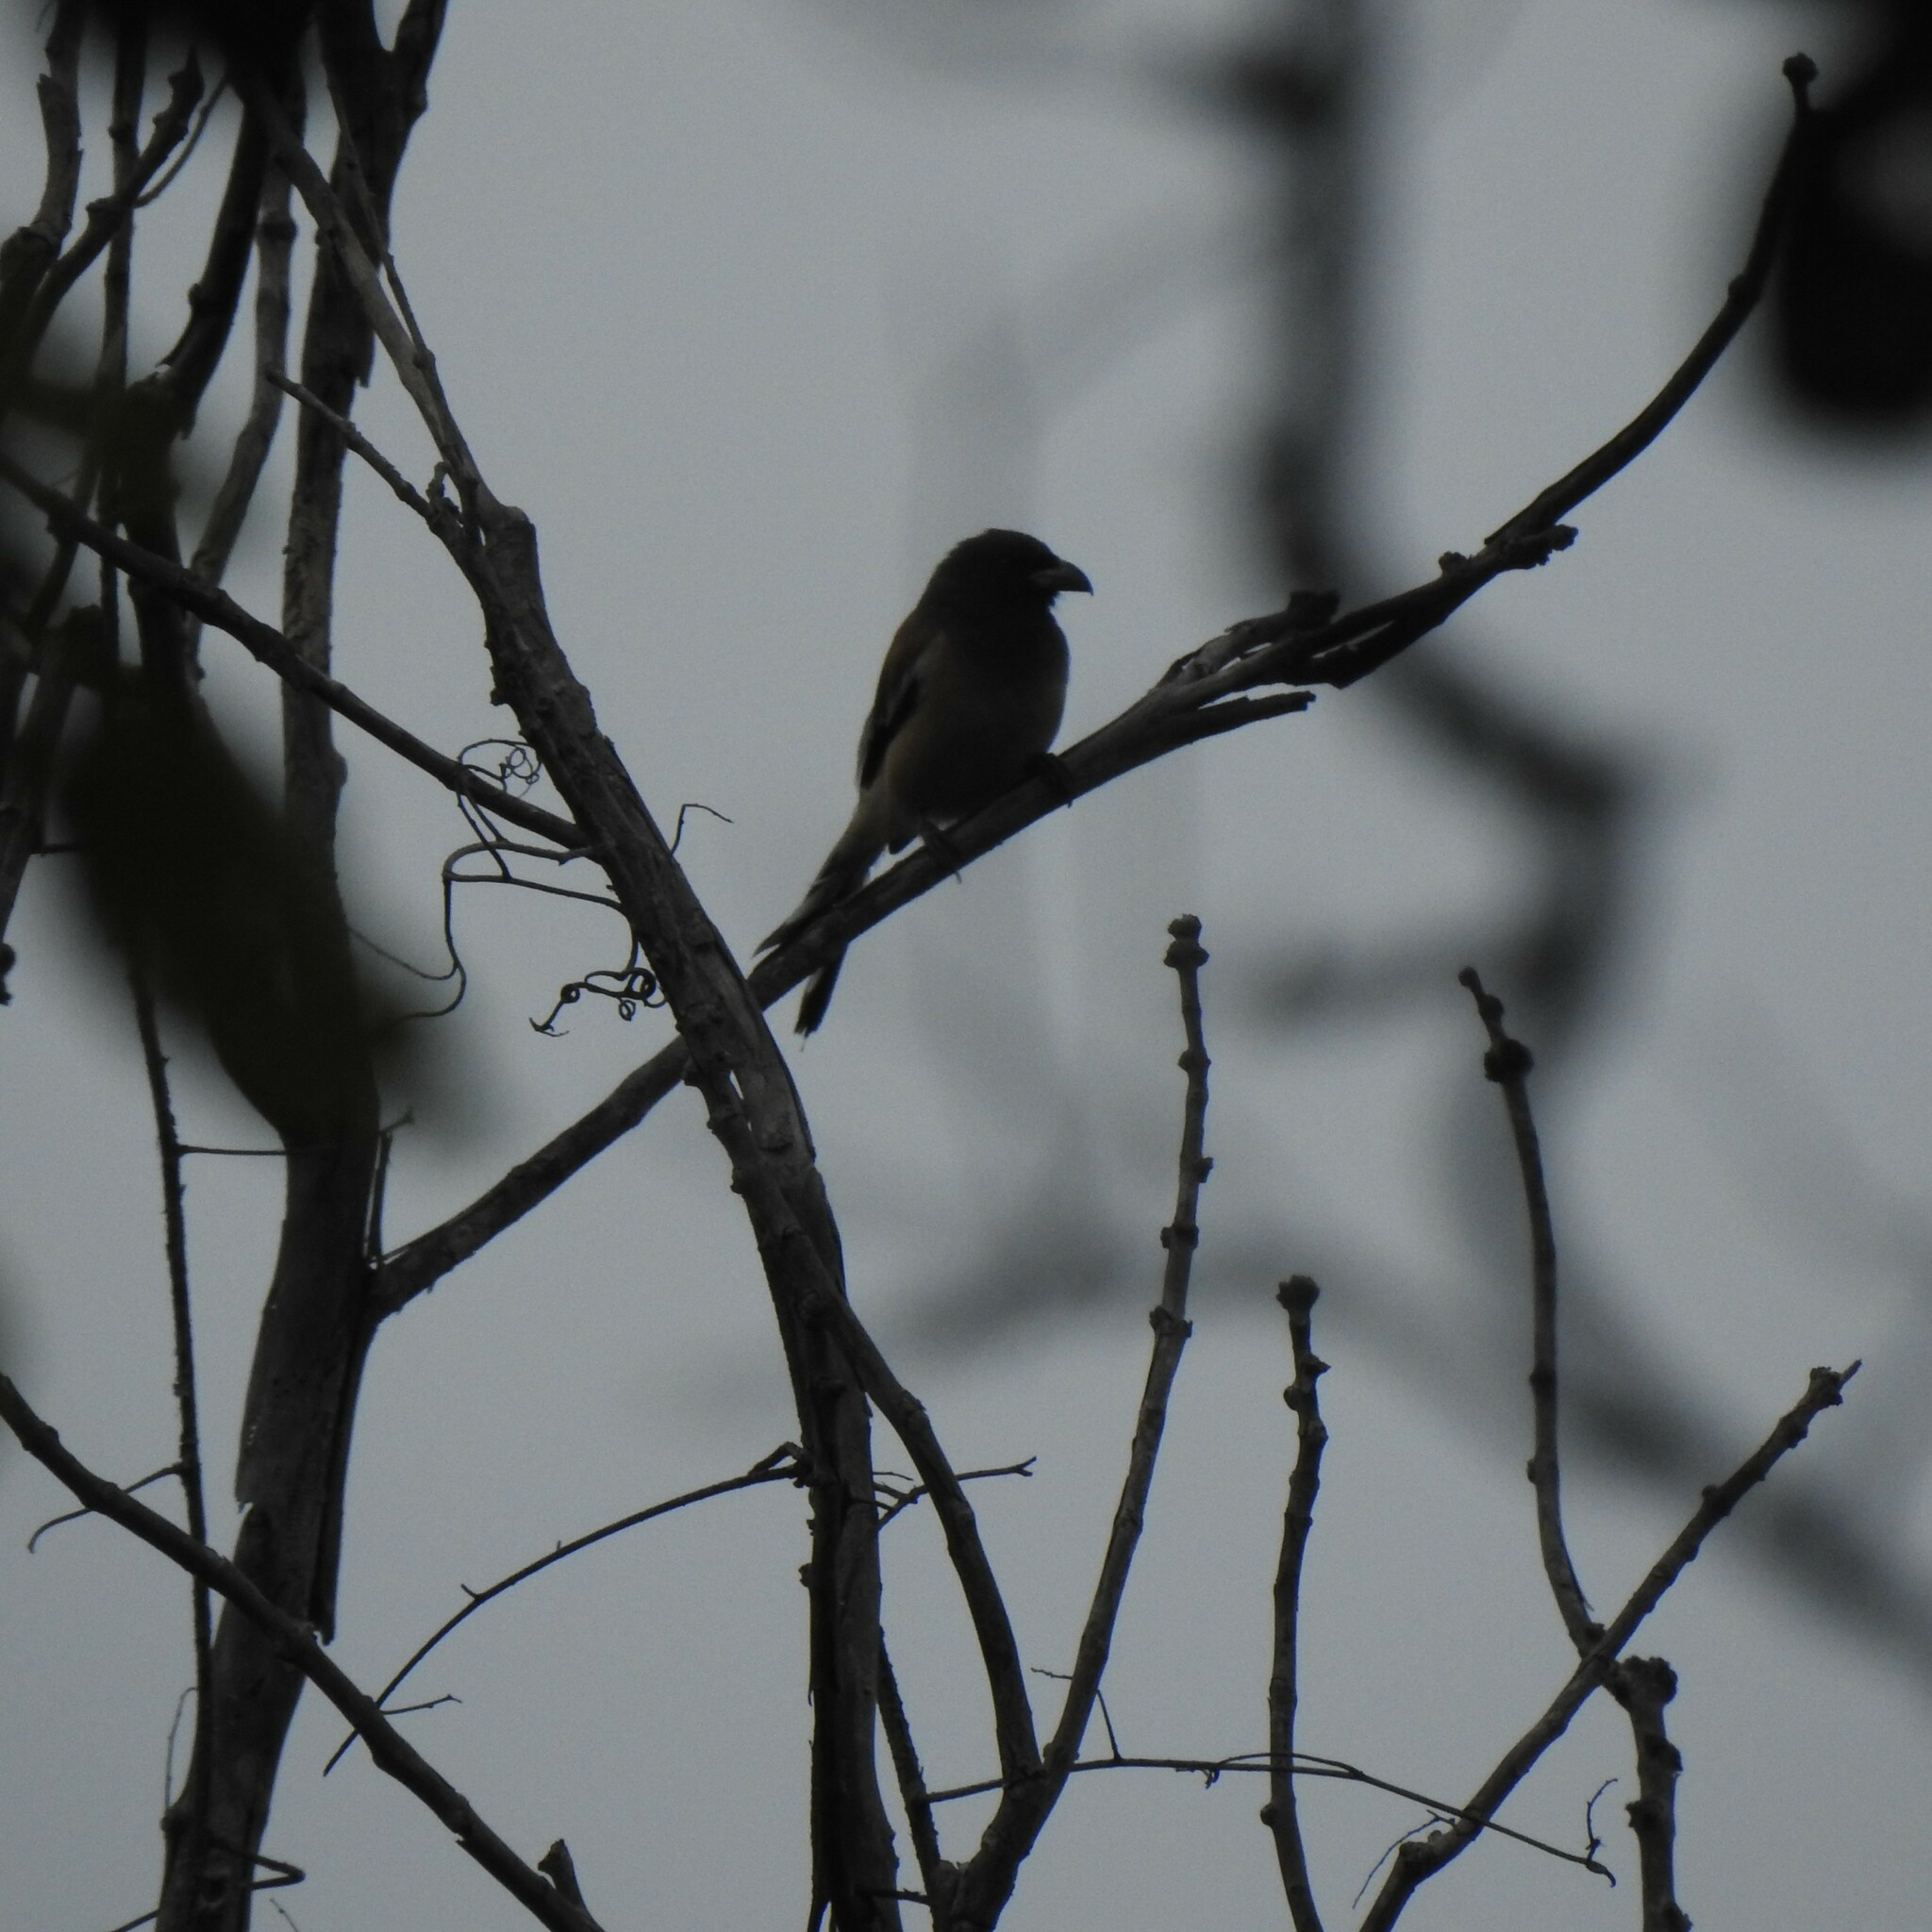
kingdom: Animalia
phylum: Chordata
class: Aves
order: Passeriformes
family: Corvidae
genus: Dendrocitta
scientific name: Dendrocitta vagabunda
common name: Rufous treepie
